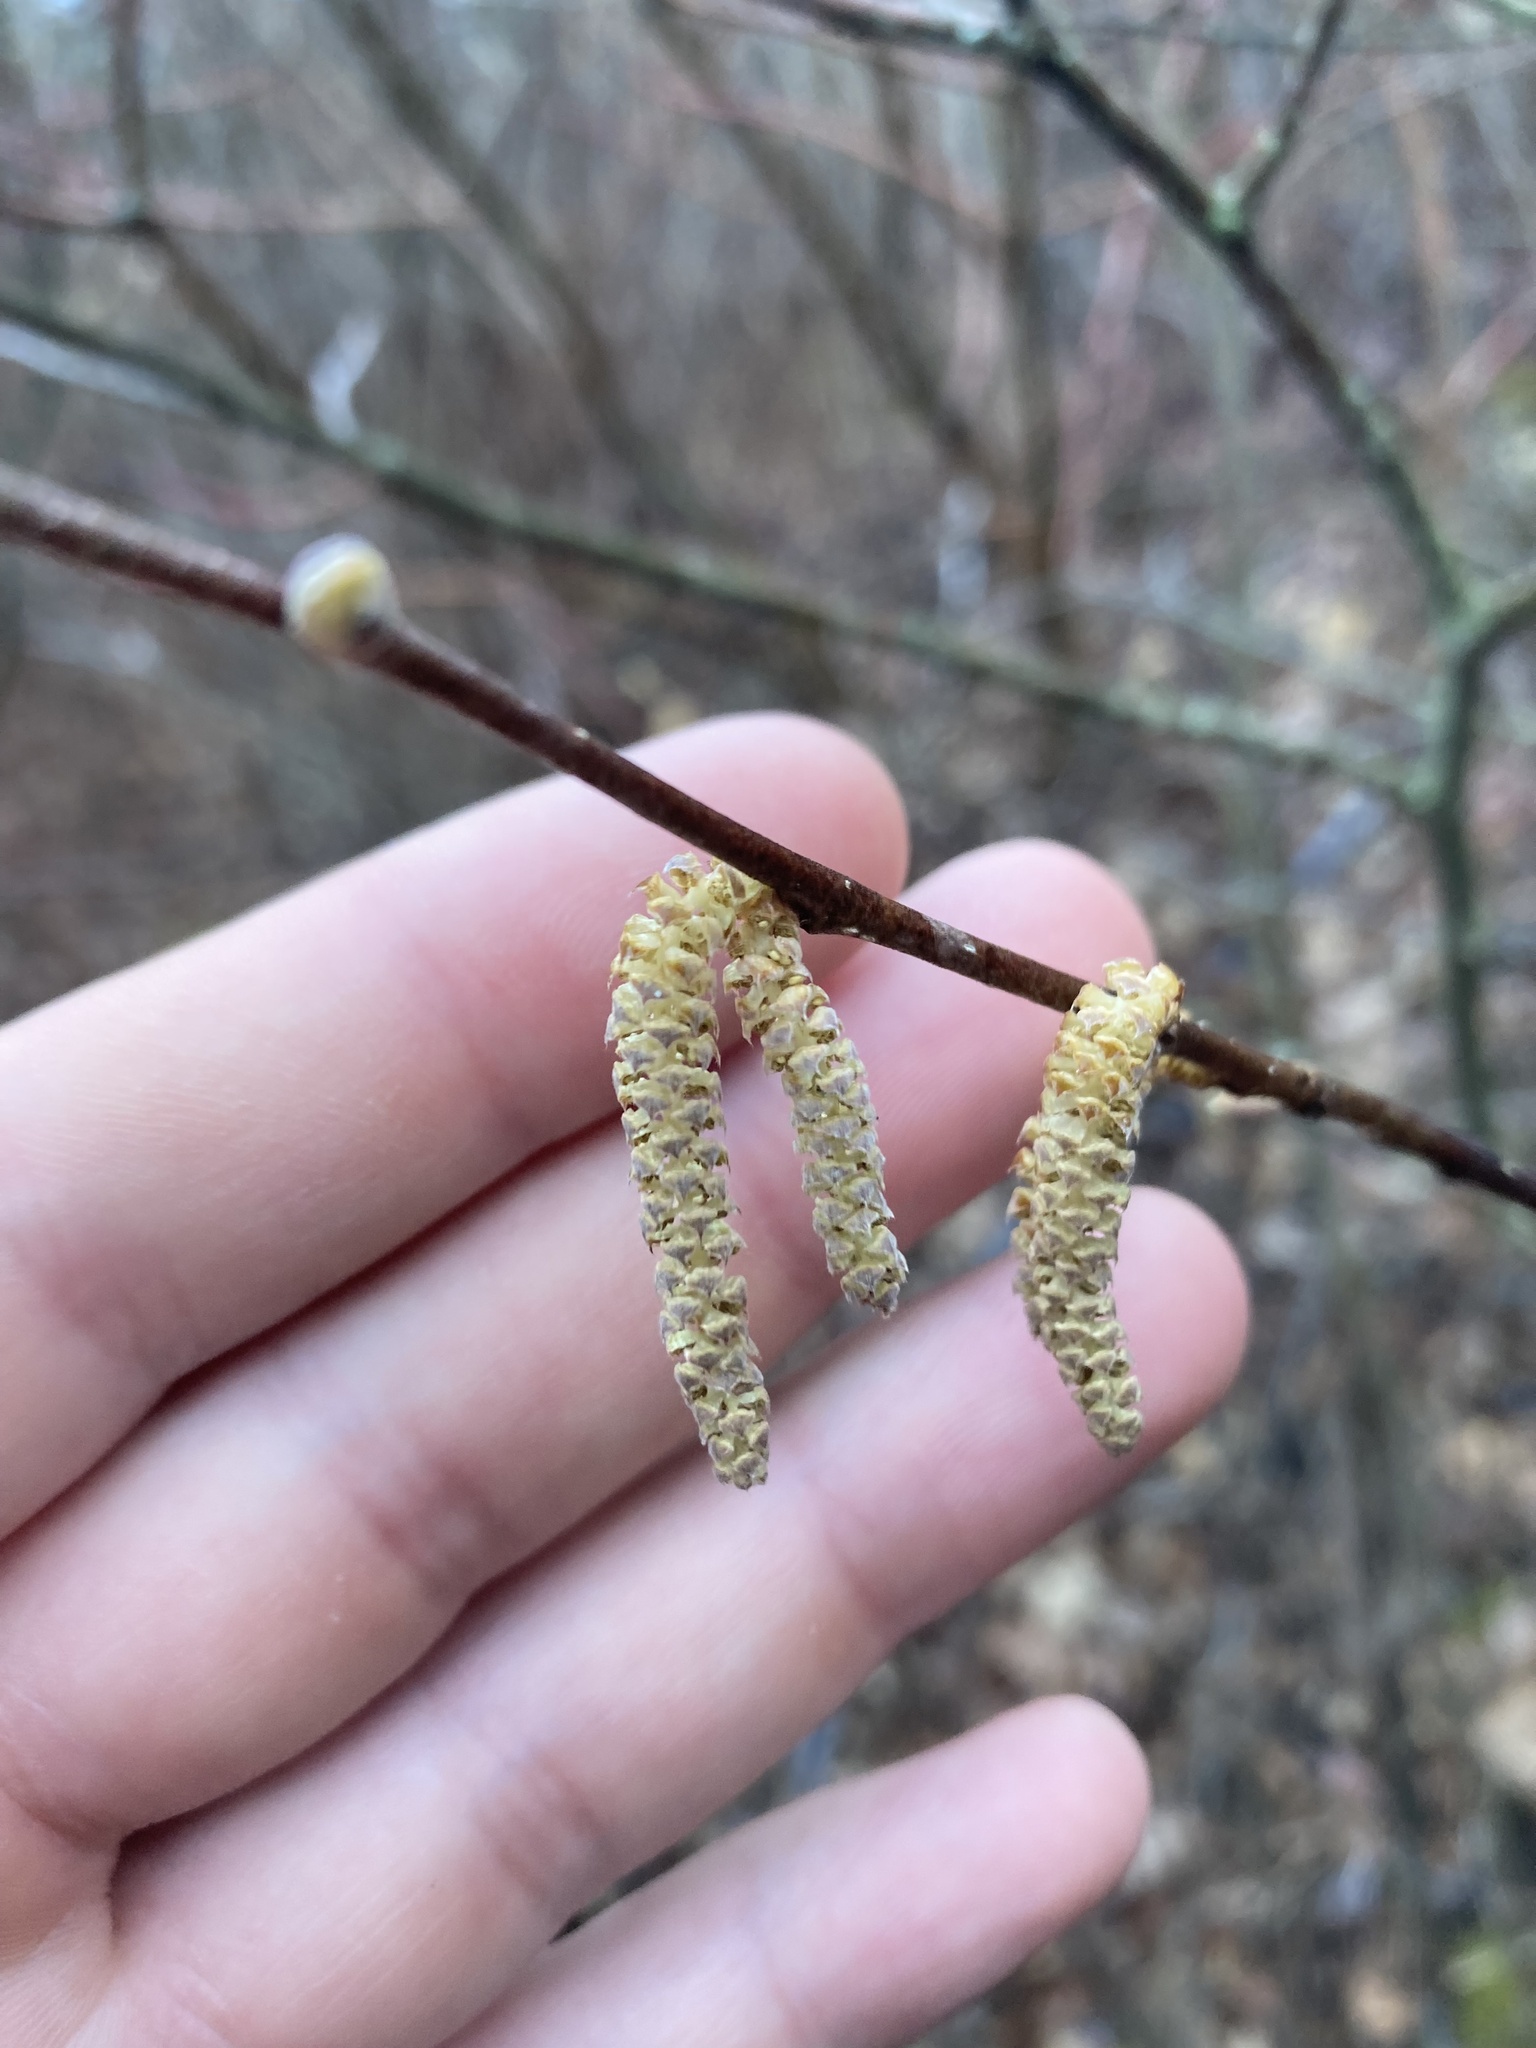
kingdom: Plantae
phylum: Tracheophyta
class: Magnoliopsida
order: Fagales
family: Betulaceae
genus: Corylus
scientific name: Corylus cornuta
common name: Beaked hazel
